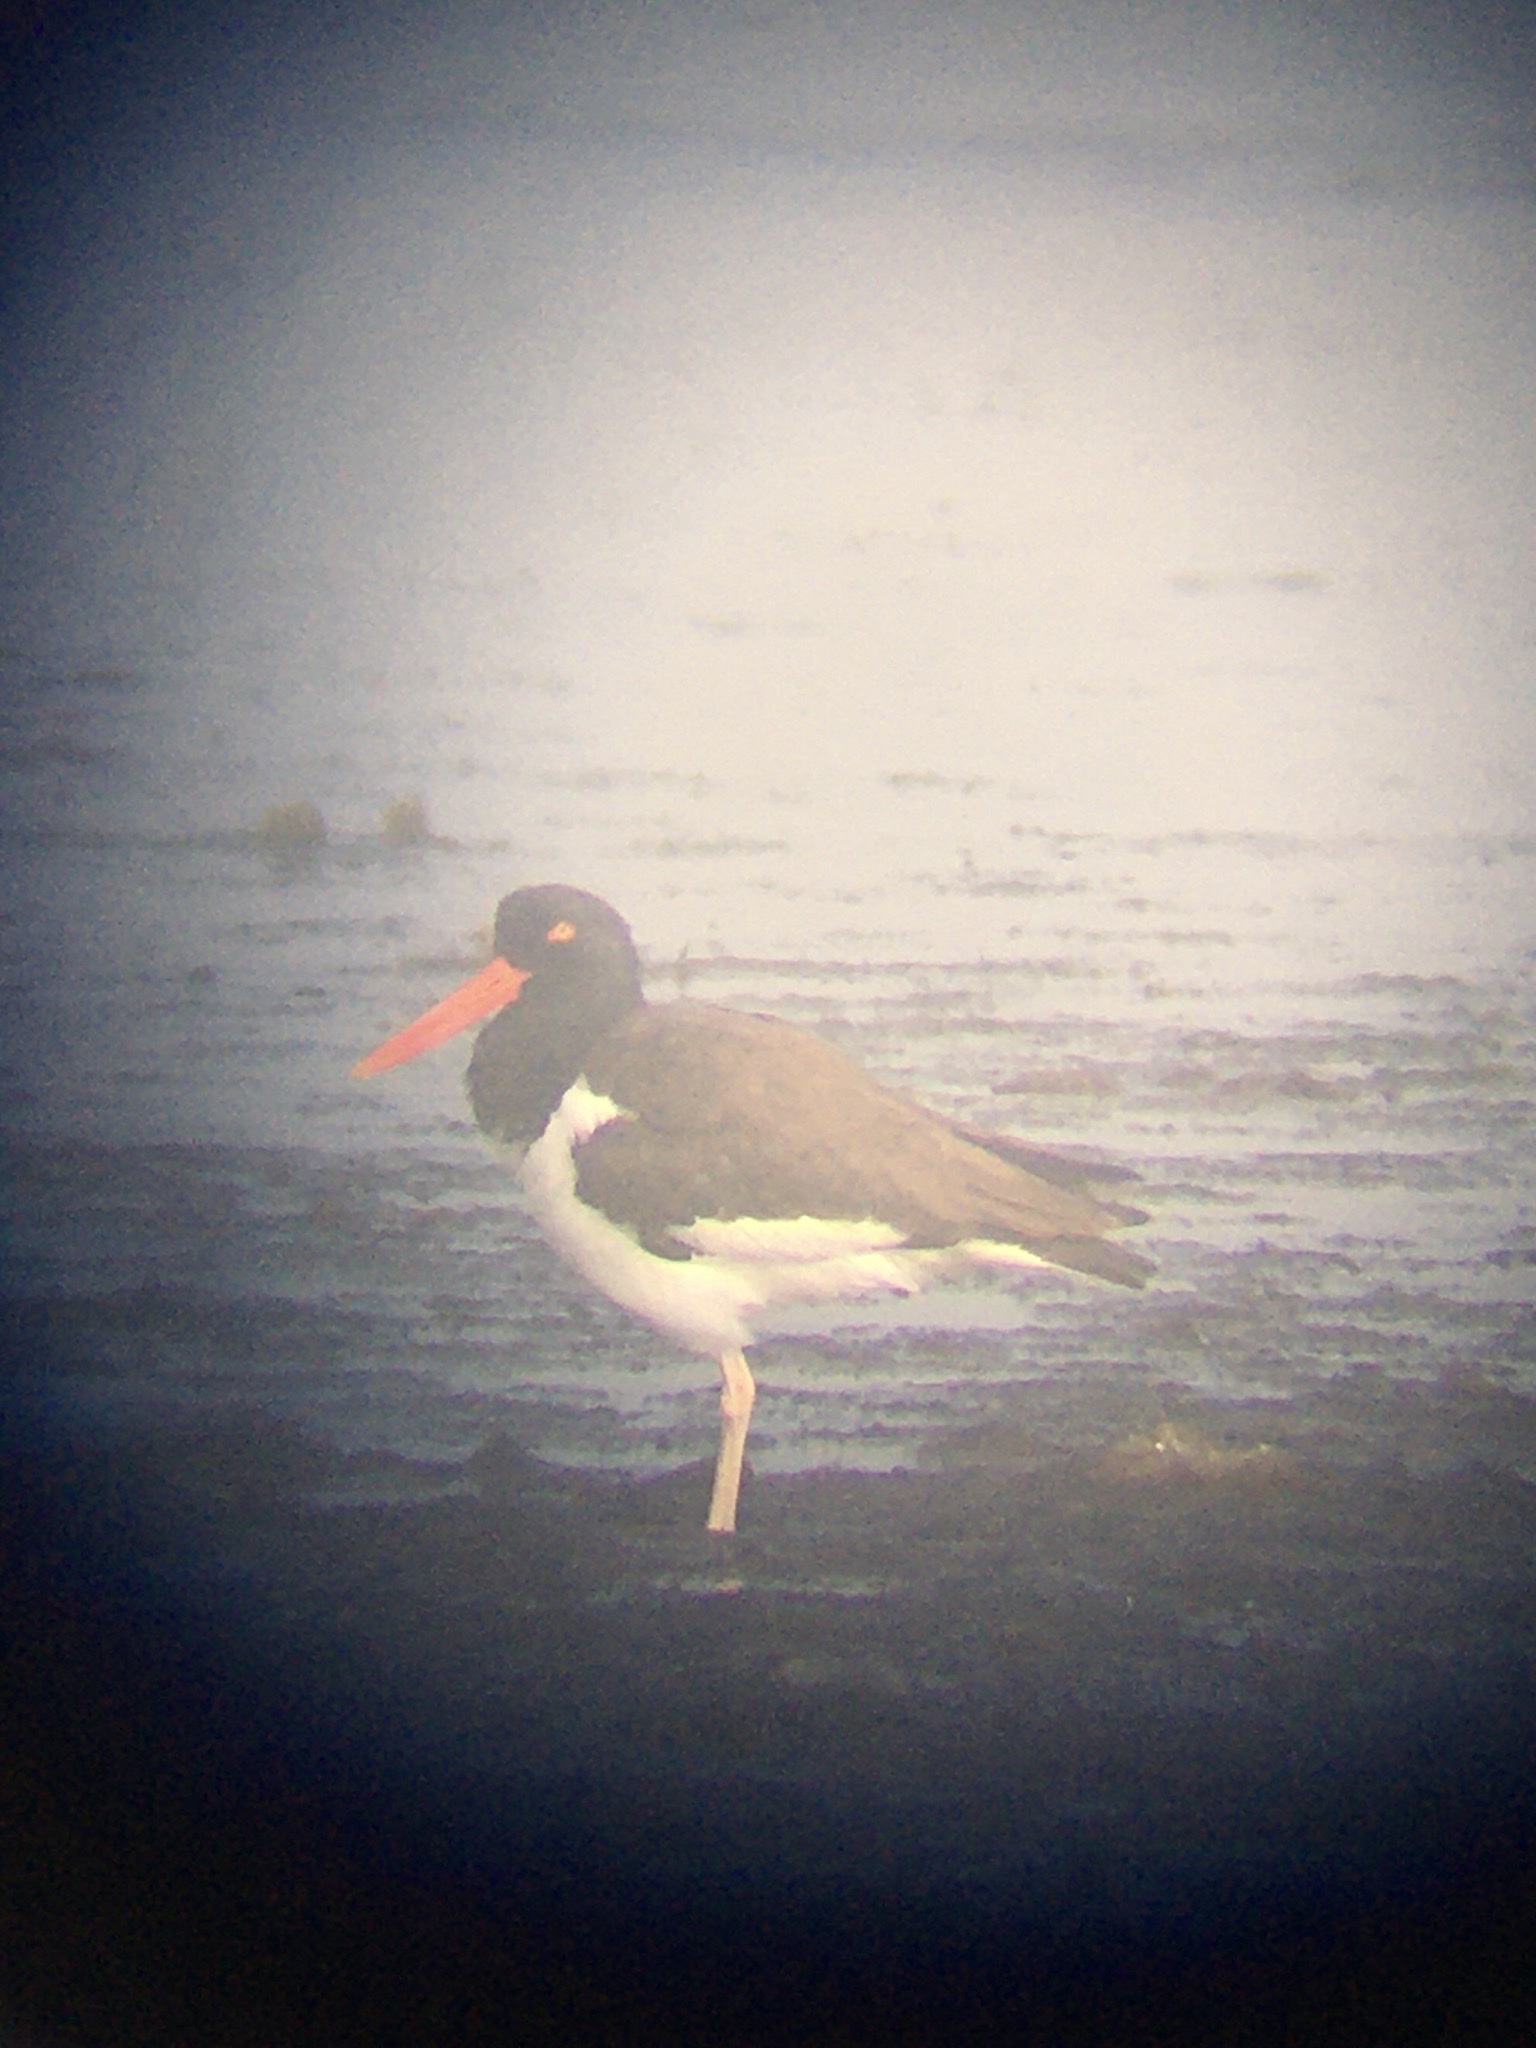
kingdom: Animalia
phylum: Chordata
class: Aves
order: Charadriiformes
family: Haematopodidae
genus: Haematopus
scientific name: Haematopus palliatus
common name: American oystercatcher
